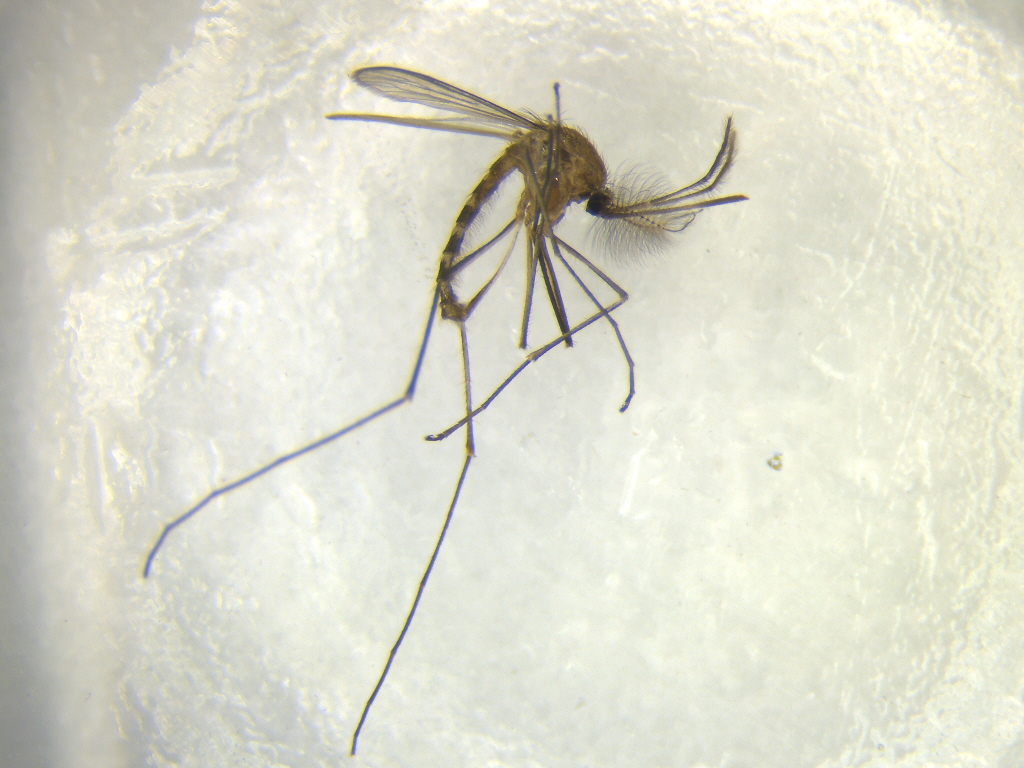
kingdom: Animalia
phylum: Arthropoda
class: Insecta
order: Diptera
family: Culicidae
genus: Culex
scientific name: Culex pervigilans
